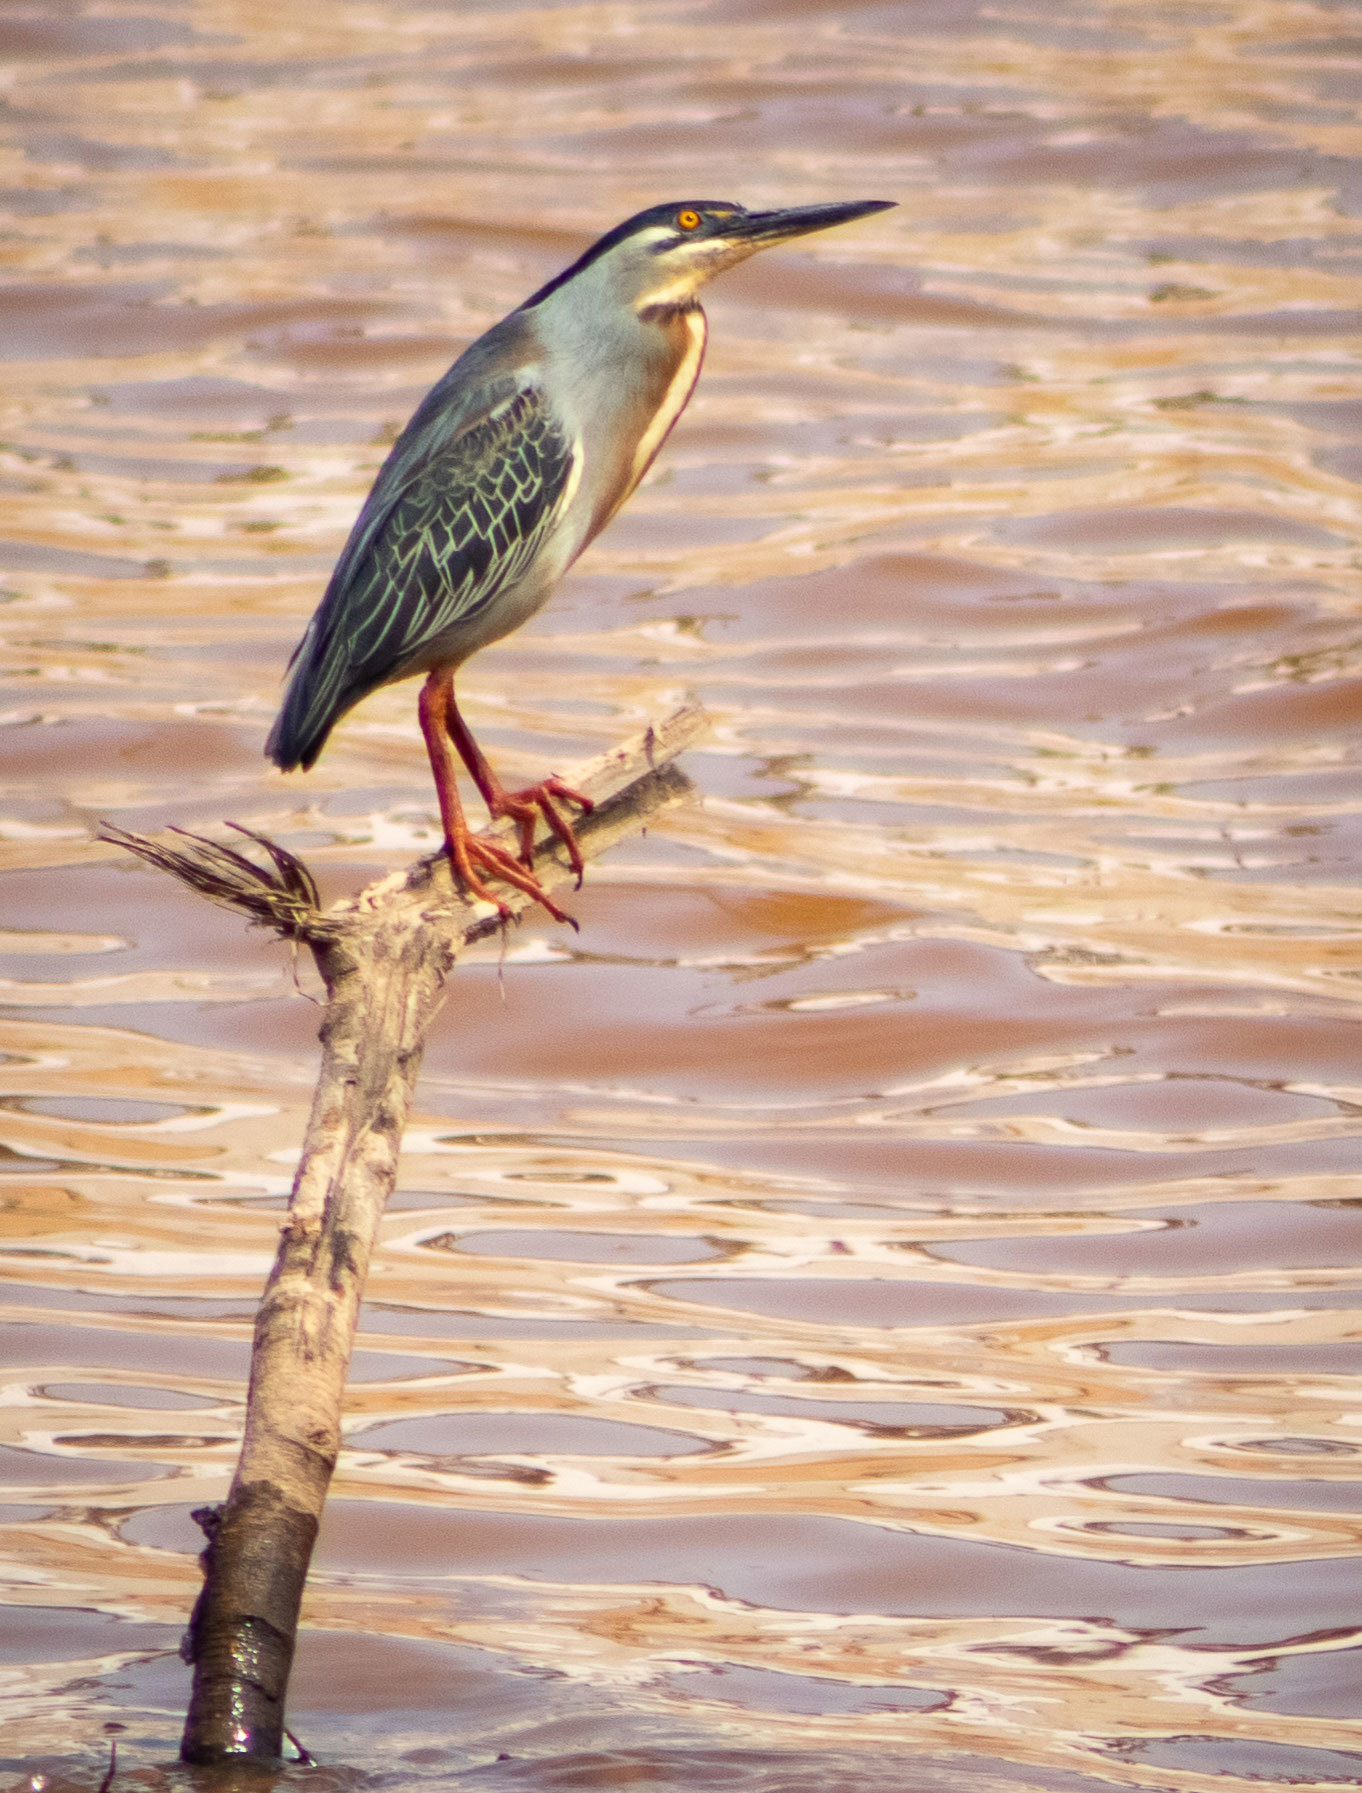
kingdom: Animalia
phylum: Chordata
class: Aves
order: Pelecaniformes
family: Ardeidae
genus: Butorides
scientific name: Butorides striata
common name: Striated heron
